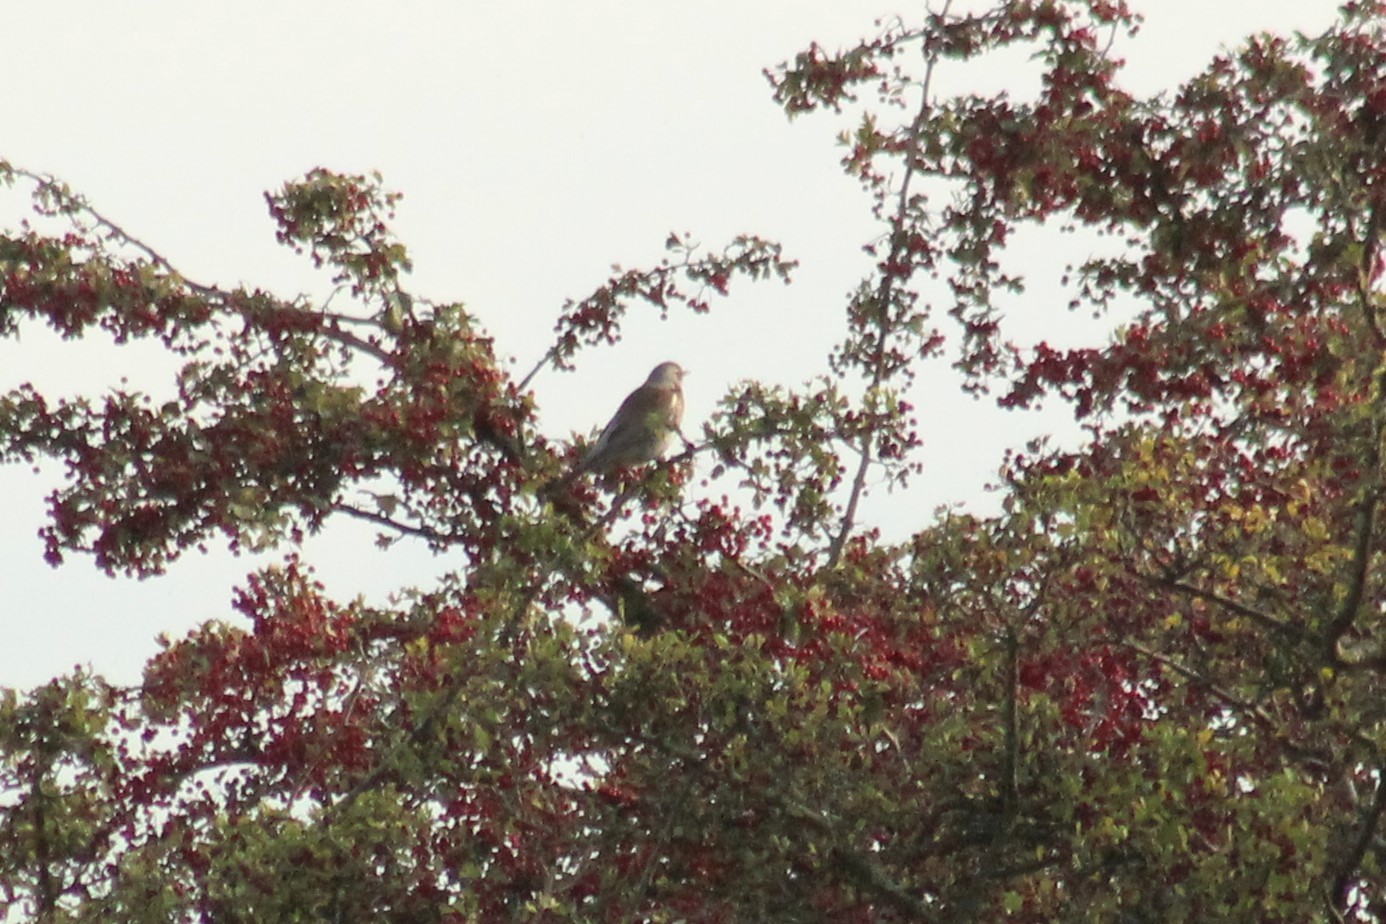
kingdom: Animalia
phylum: Chordata
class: Aves
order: Passeriformes
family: Turdidae
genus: Turdus
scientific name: Turdus pilaris
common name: Fieldfare
